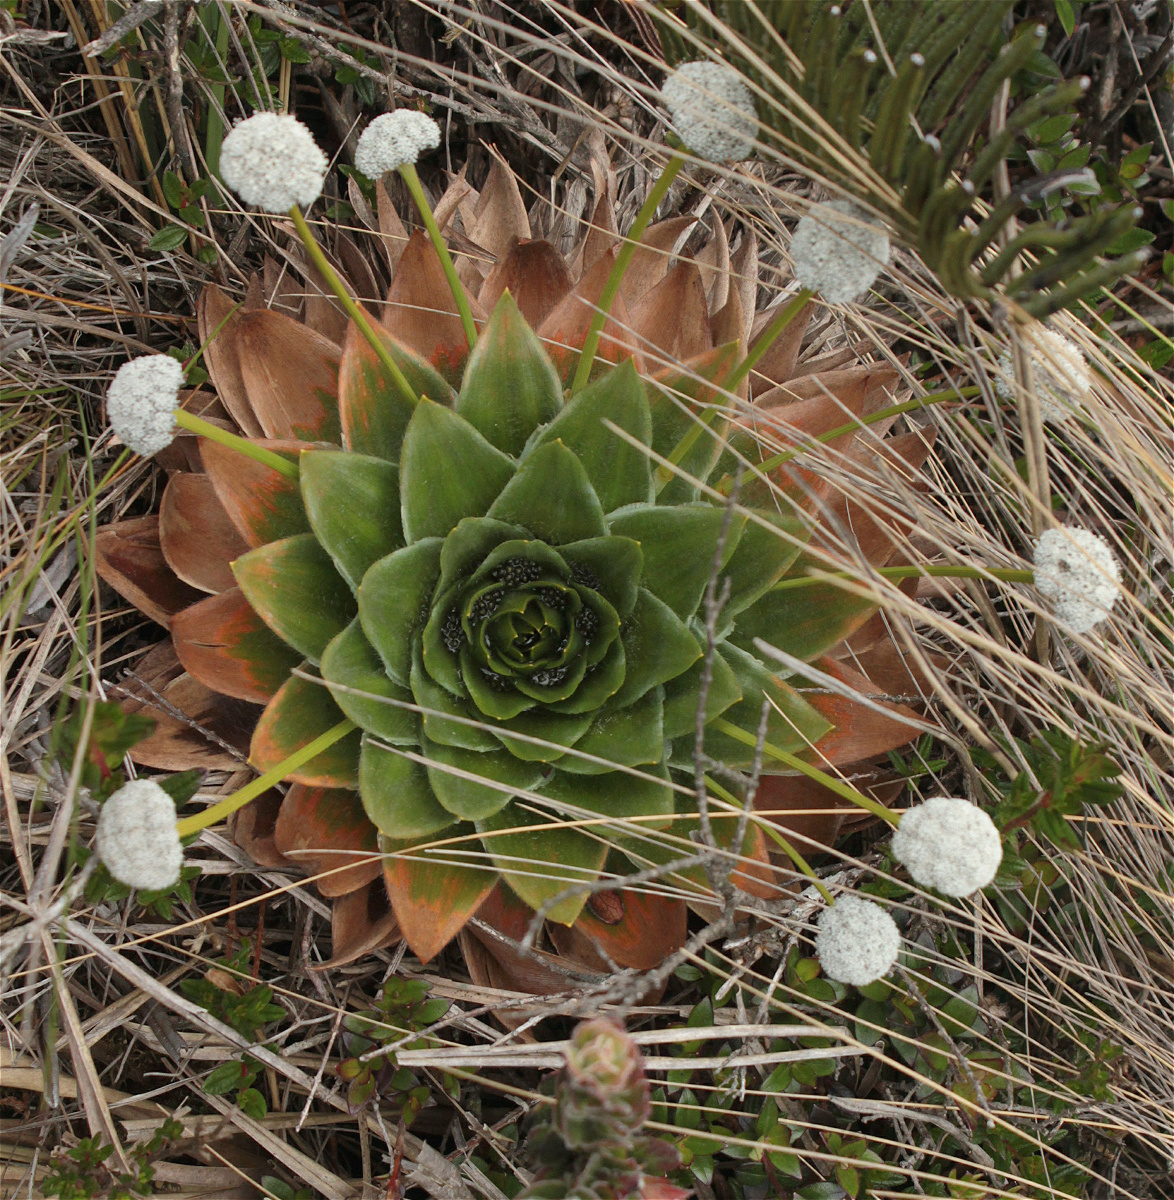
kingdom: Plantae
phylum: Tracheophyta
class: Liliopsida
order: Poales
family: Eriocaulaceae
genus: Paepalanthus
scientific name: Paepalanthus alpinus
